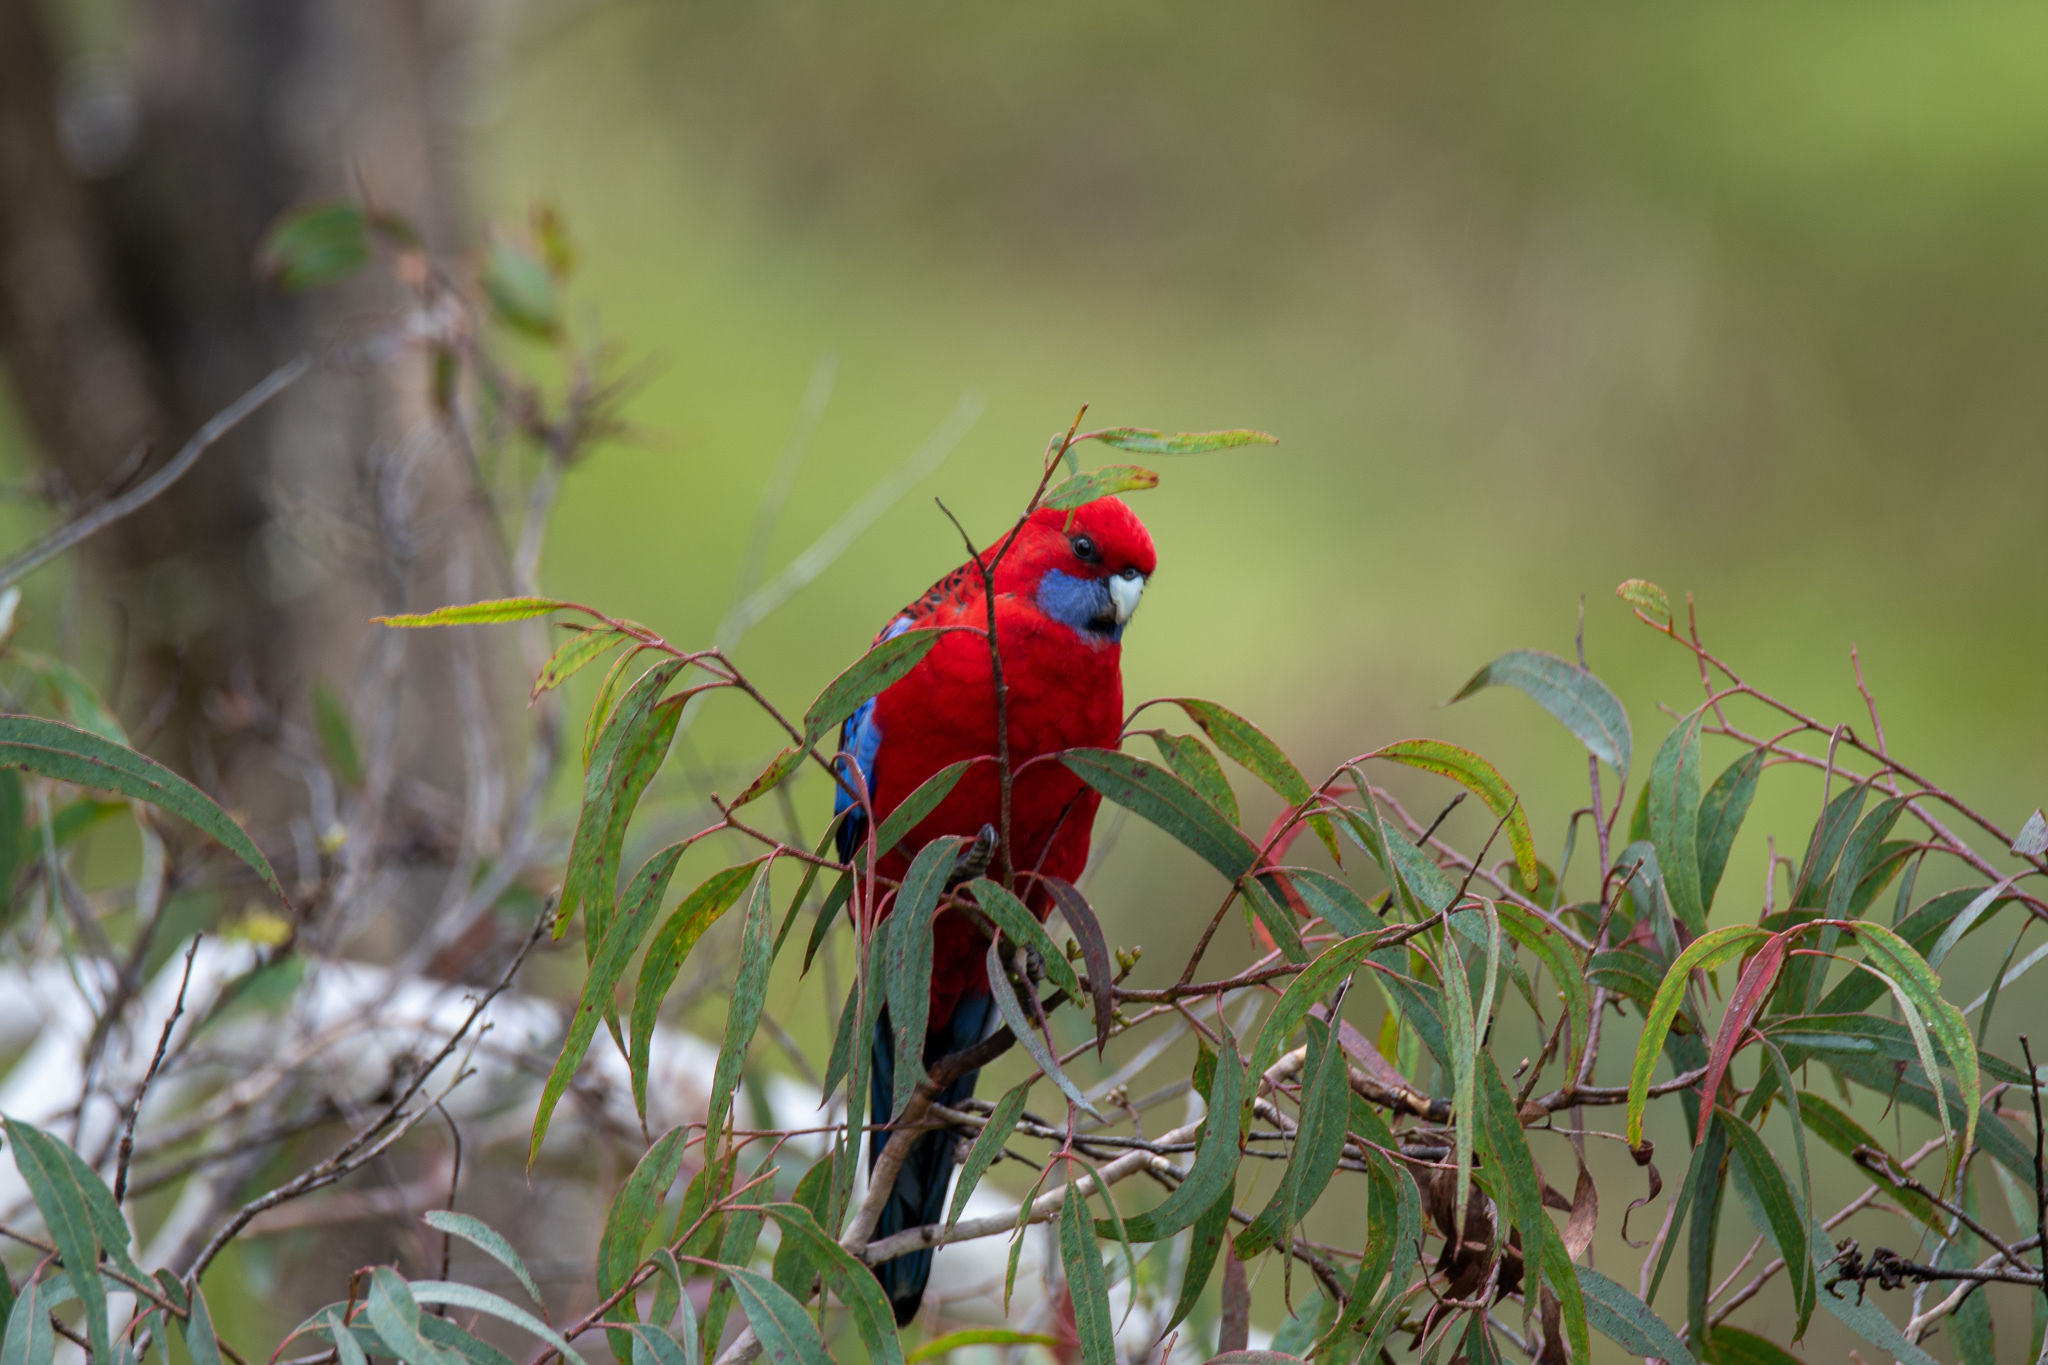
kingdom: Animalia
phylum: Chordata
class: Aves
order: Psittaciformes
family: Psittacidae
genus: Platycercus
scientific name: Platycercus elegans
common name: Crimson rosella
